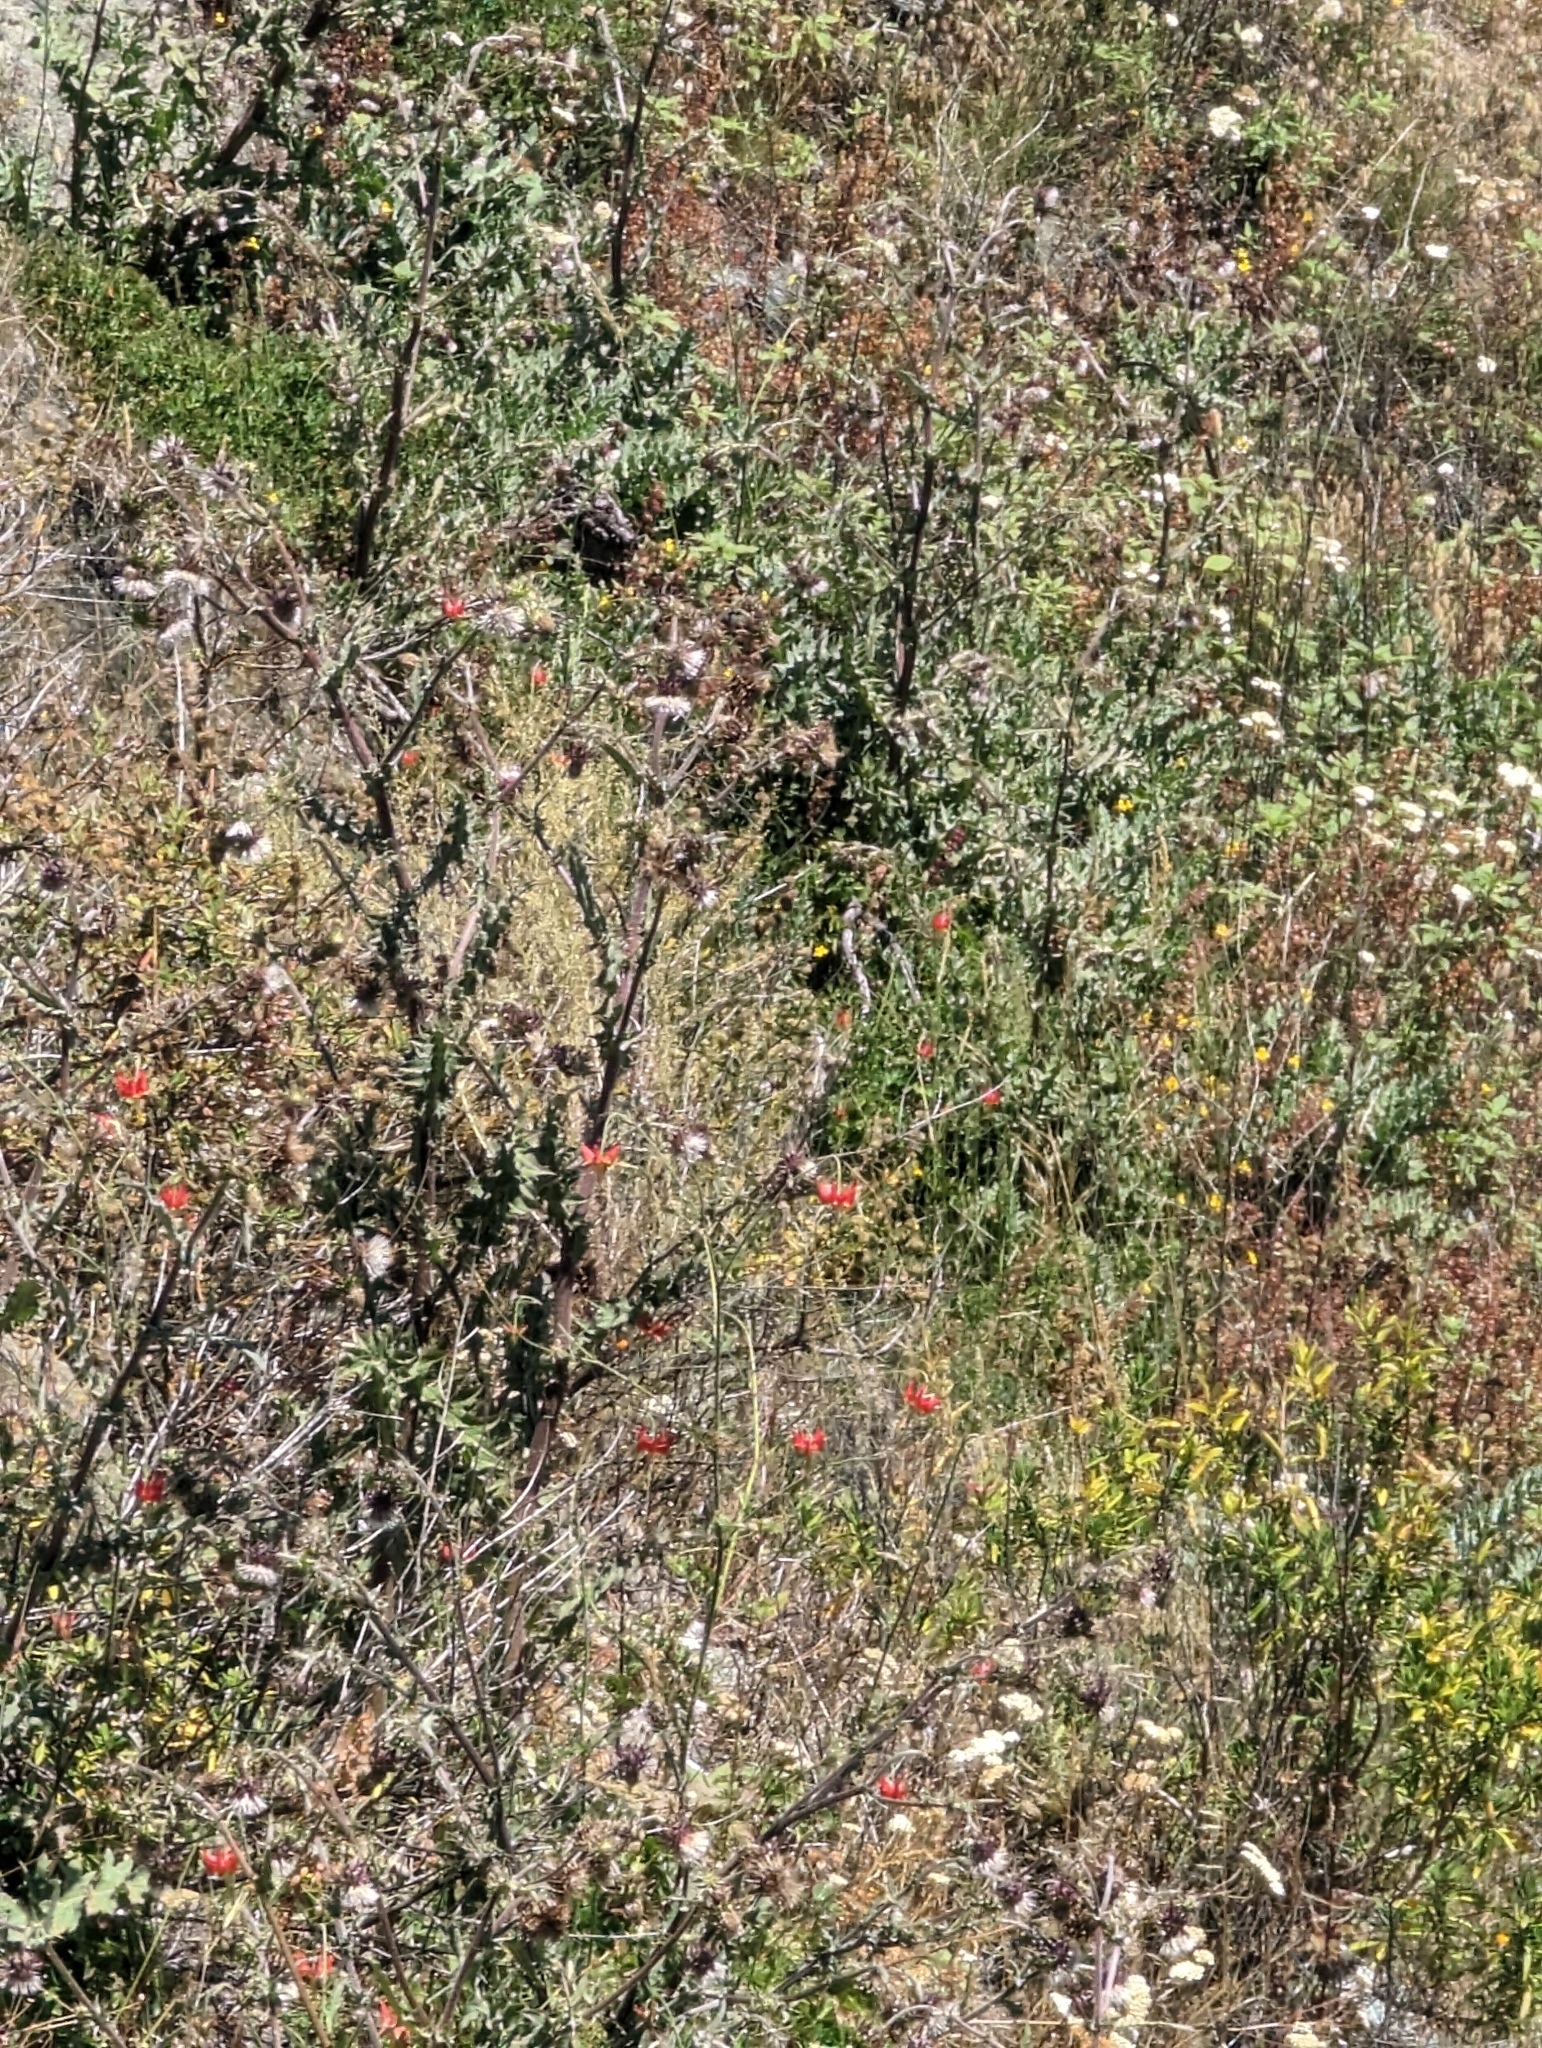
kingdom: Plantae
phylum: Tracheophyta
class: Magnoliopsida
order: Ranunculales
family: Ranunculaceae
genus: Aquilegia
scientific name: Aquilegia eximia
